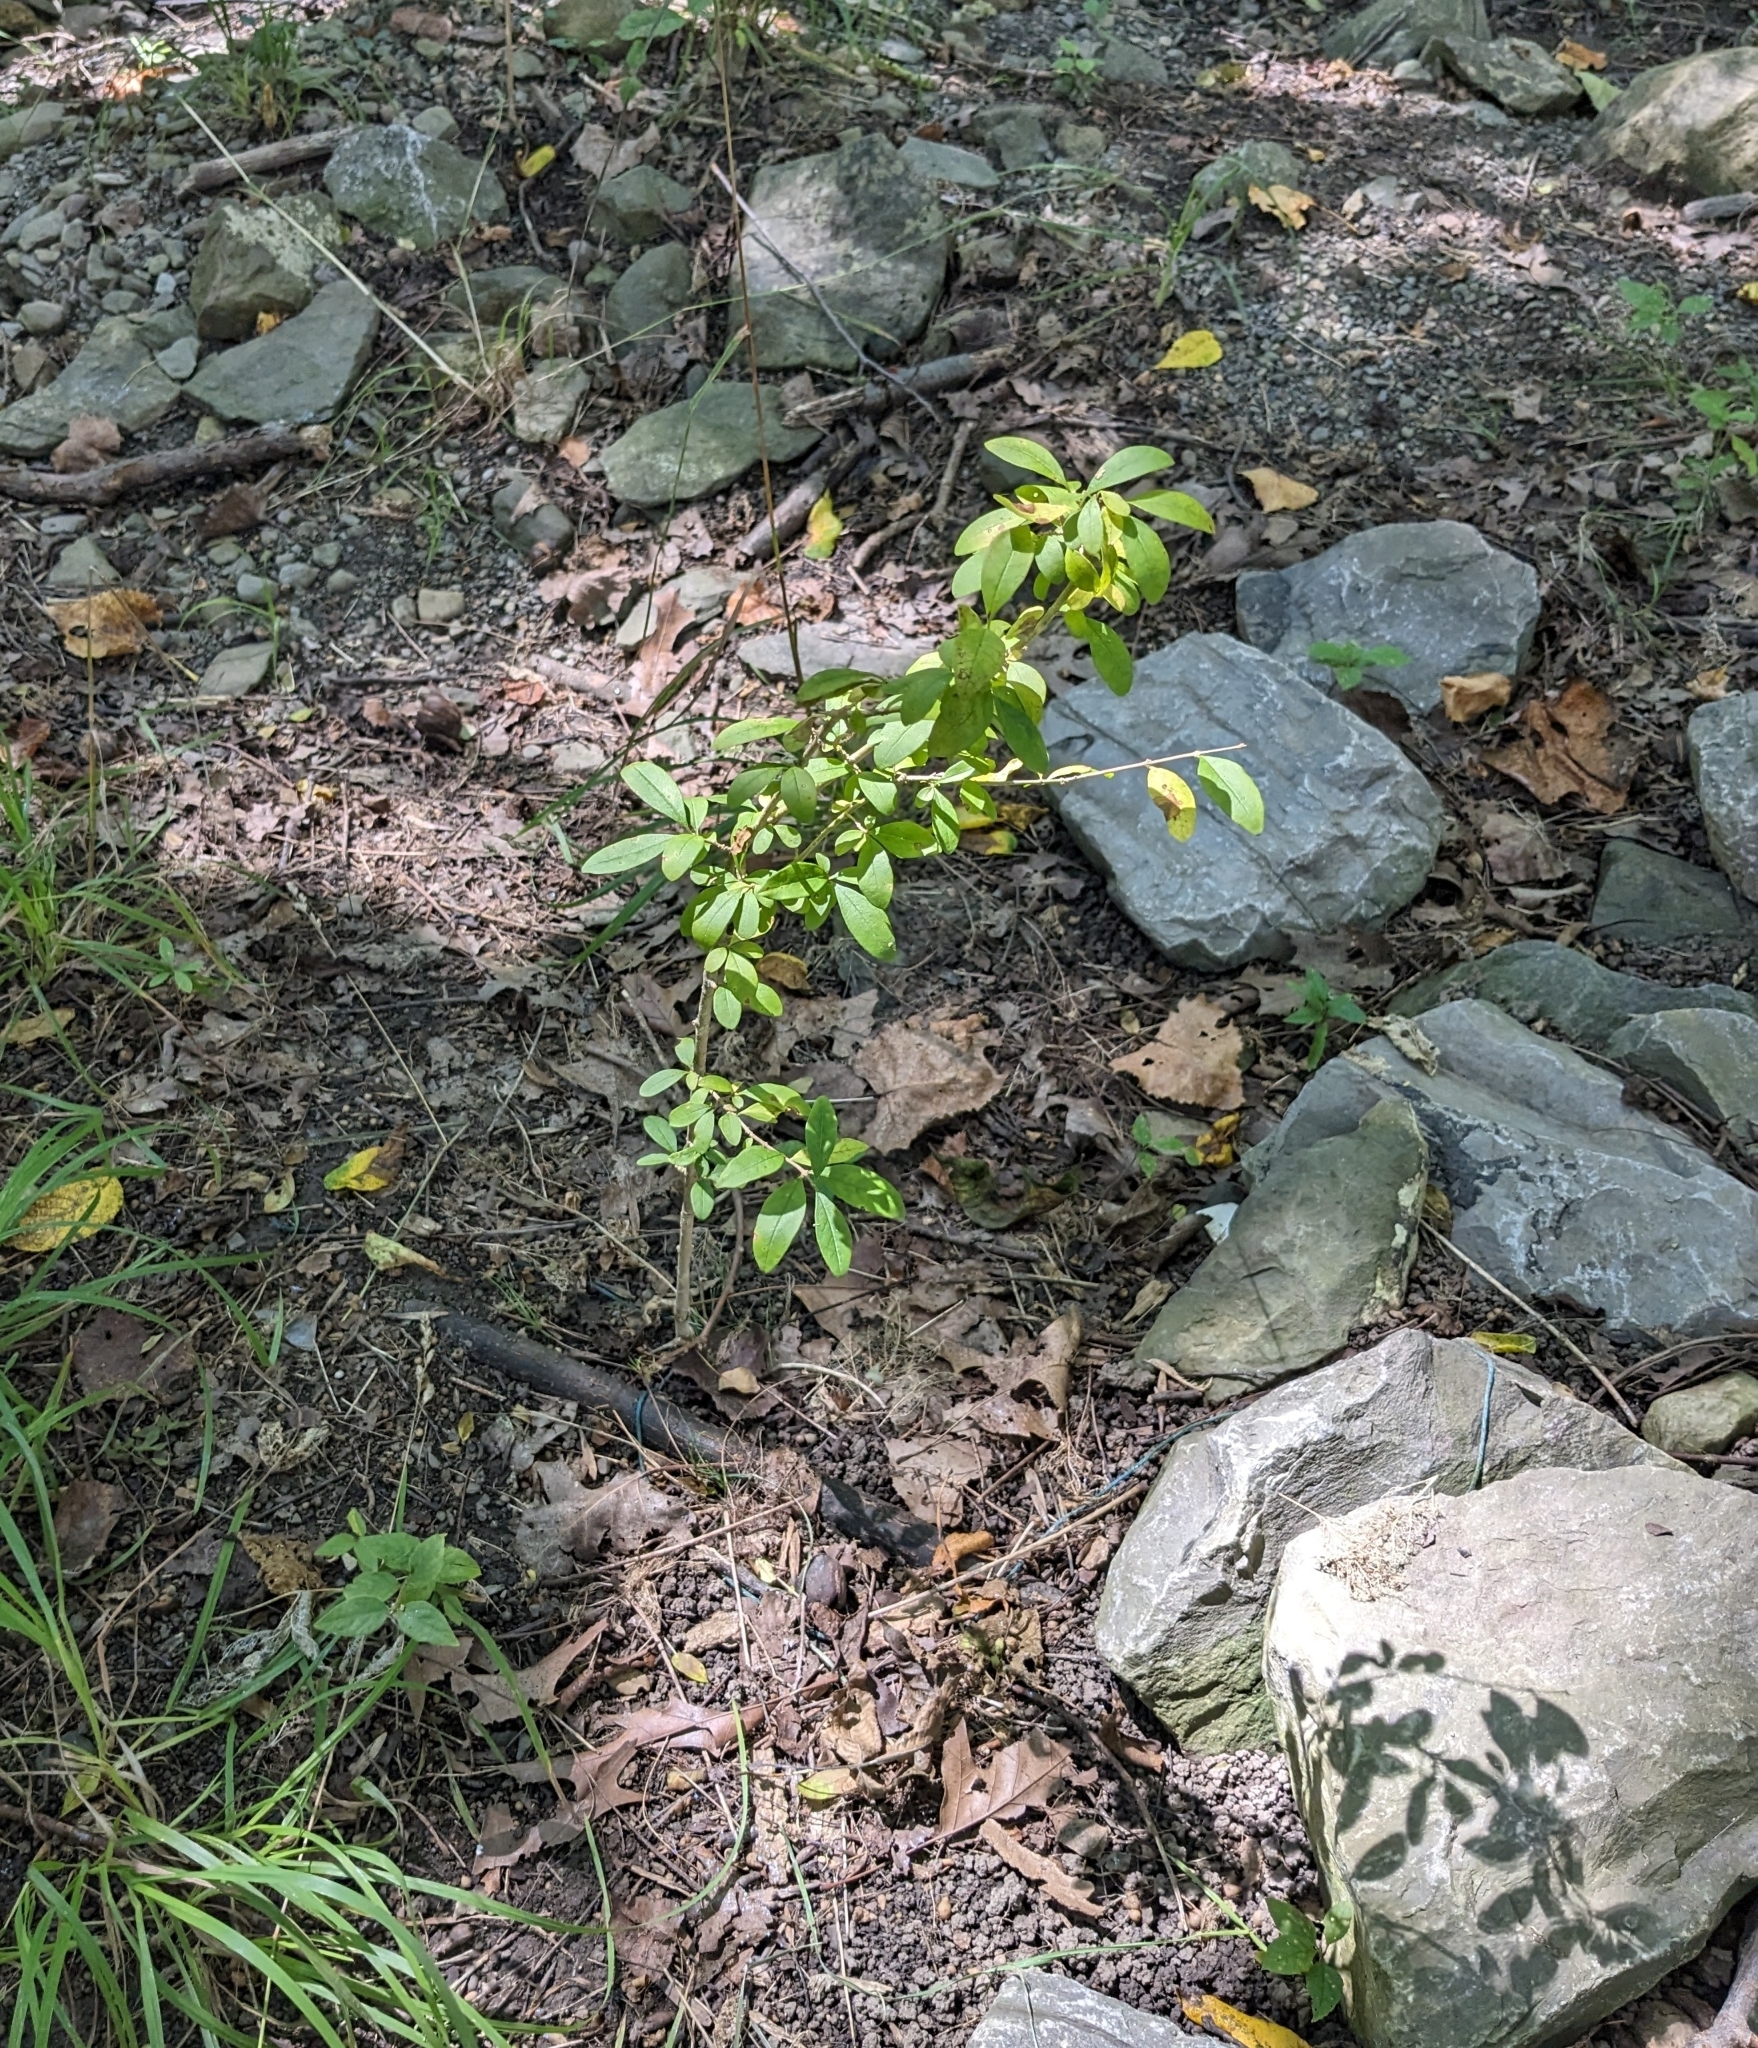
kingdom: Plantae
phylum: Tracheophyta
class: Magnoliopsida
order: Lamiales
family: Oleaceae
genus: Ligustrum
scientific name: Ligustrum obtusifolium
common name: Border privet
